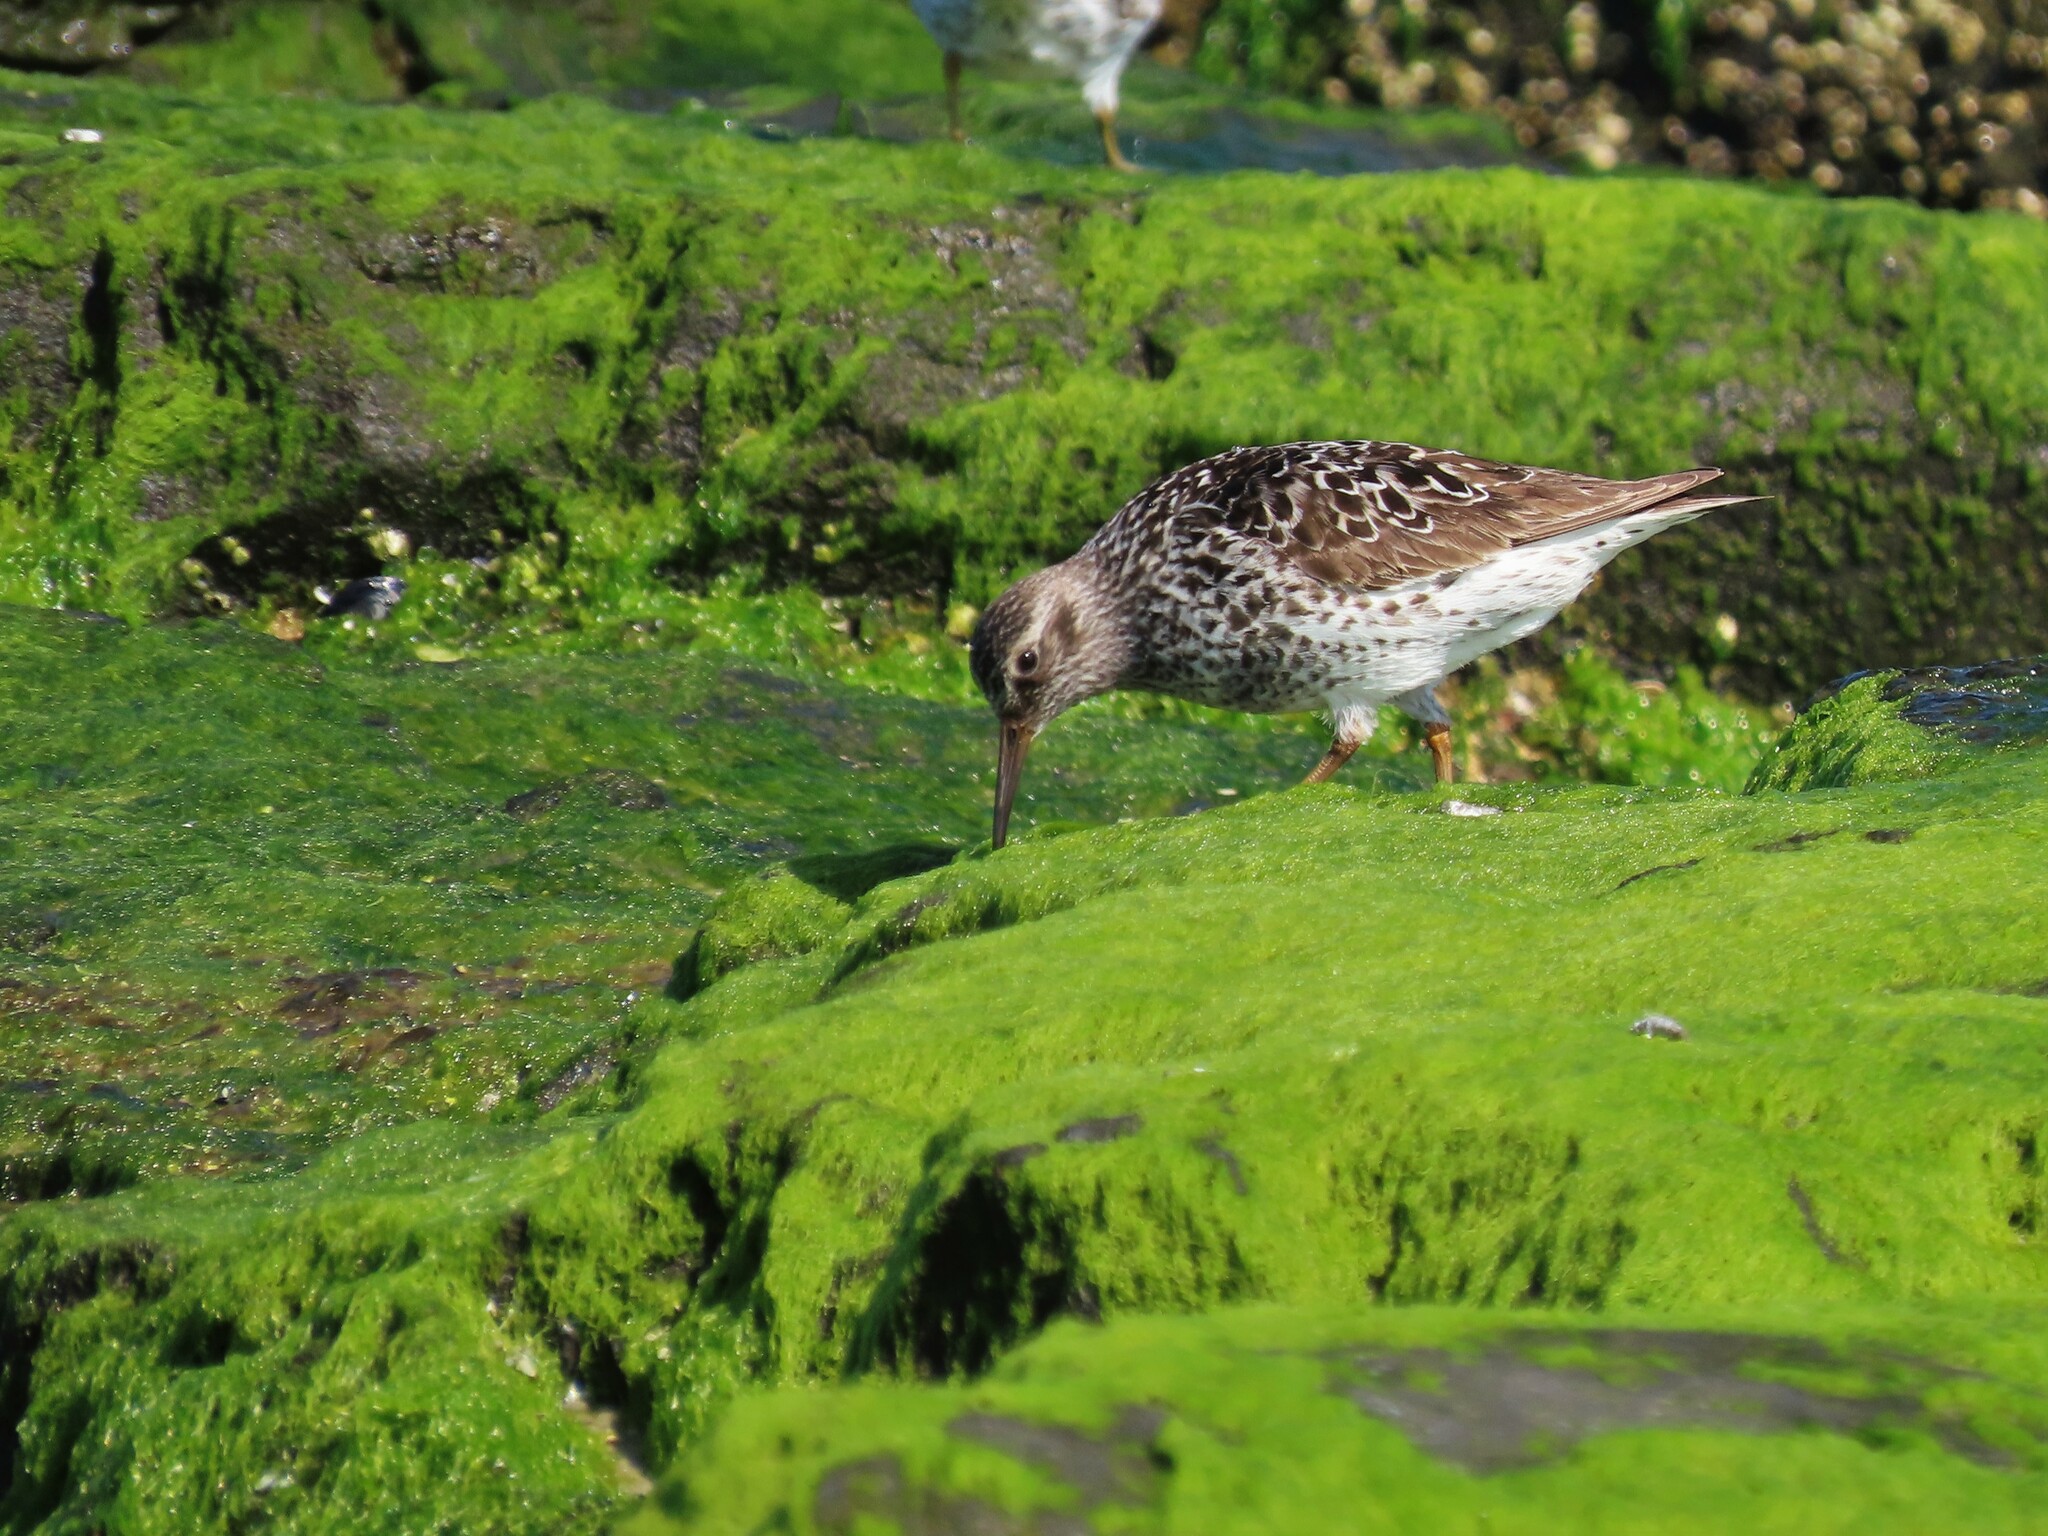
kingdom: Animalia
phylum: Chordata
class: Aves
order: Charadriiformes
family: Scolopacidae
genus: Calidris
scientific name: Calidris maritima
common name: Purple sandpiper
